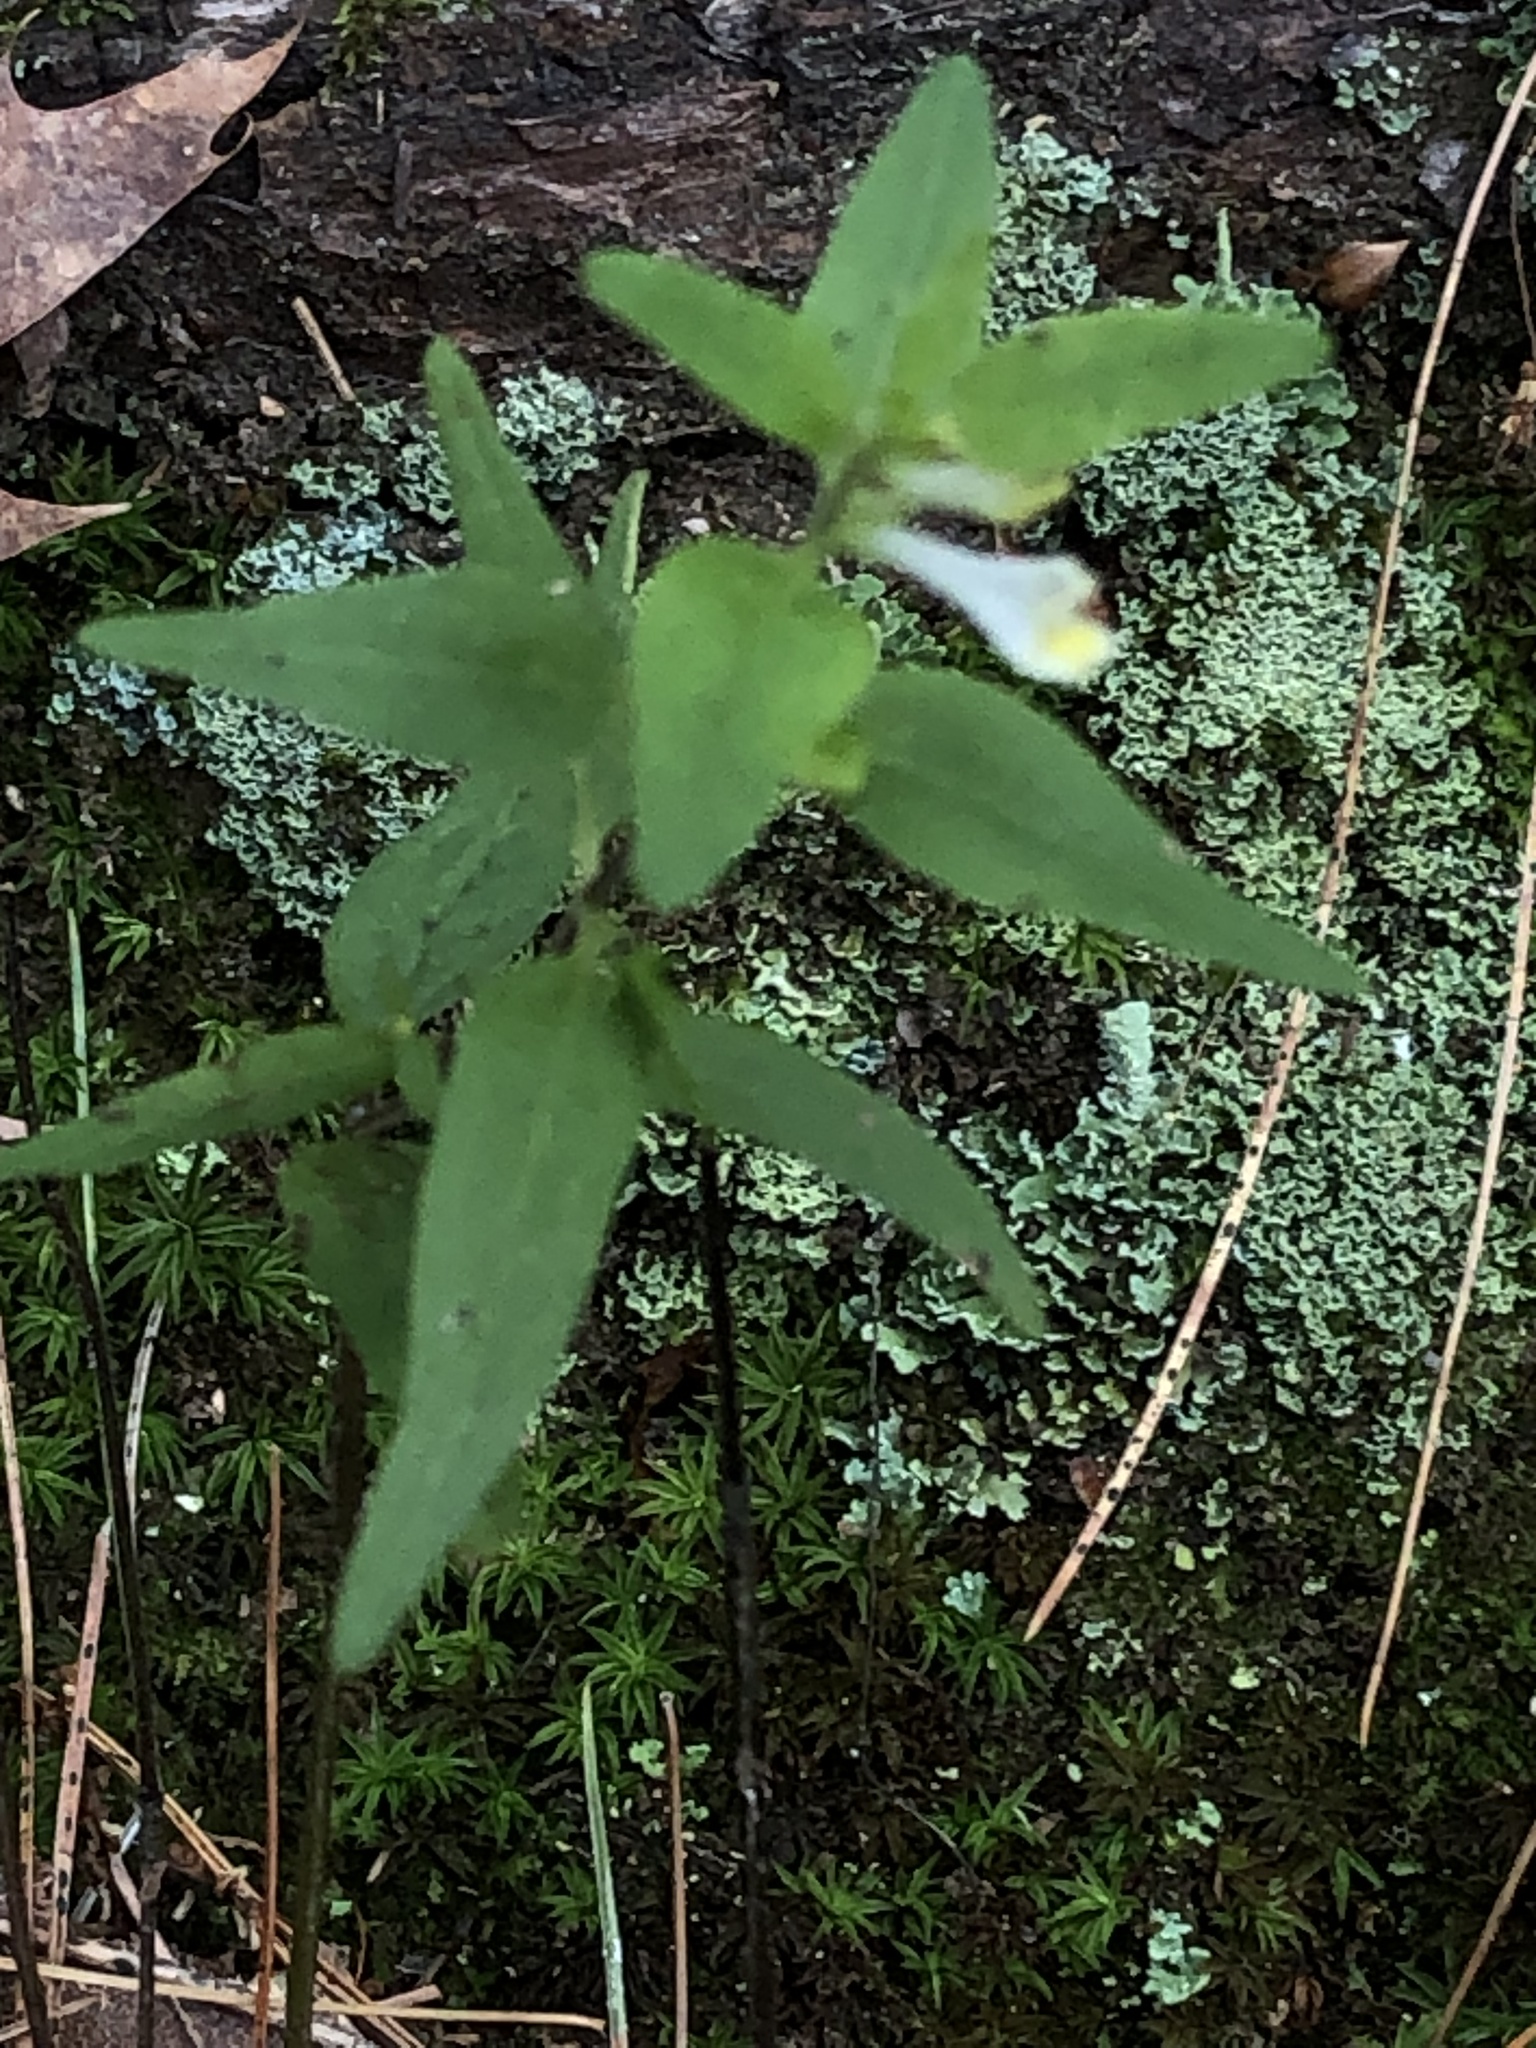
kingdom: Plantae
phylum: Tracheophyta
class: Magnoliopsida
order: Lamiales
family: Orobanchaceae
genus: Melampyrum
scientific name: Melampyrum lineare
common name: American cow-wheat
